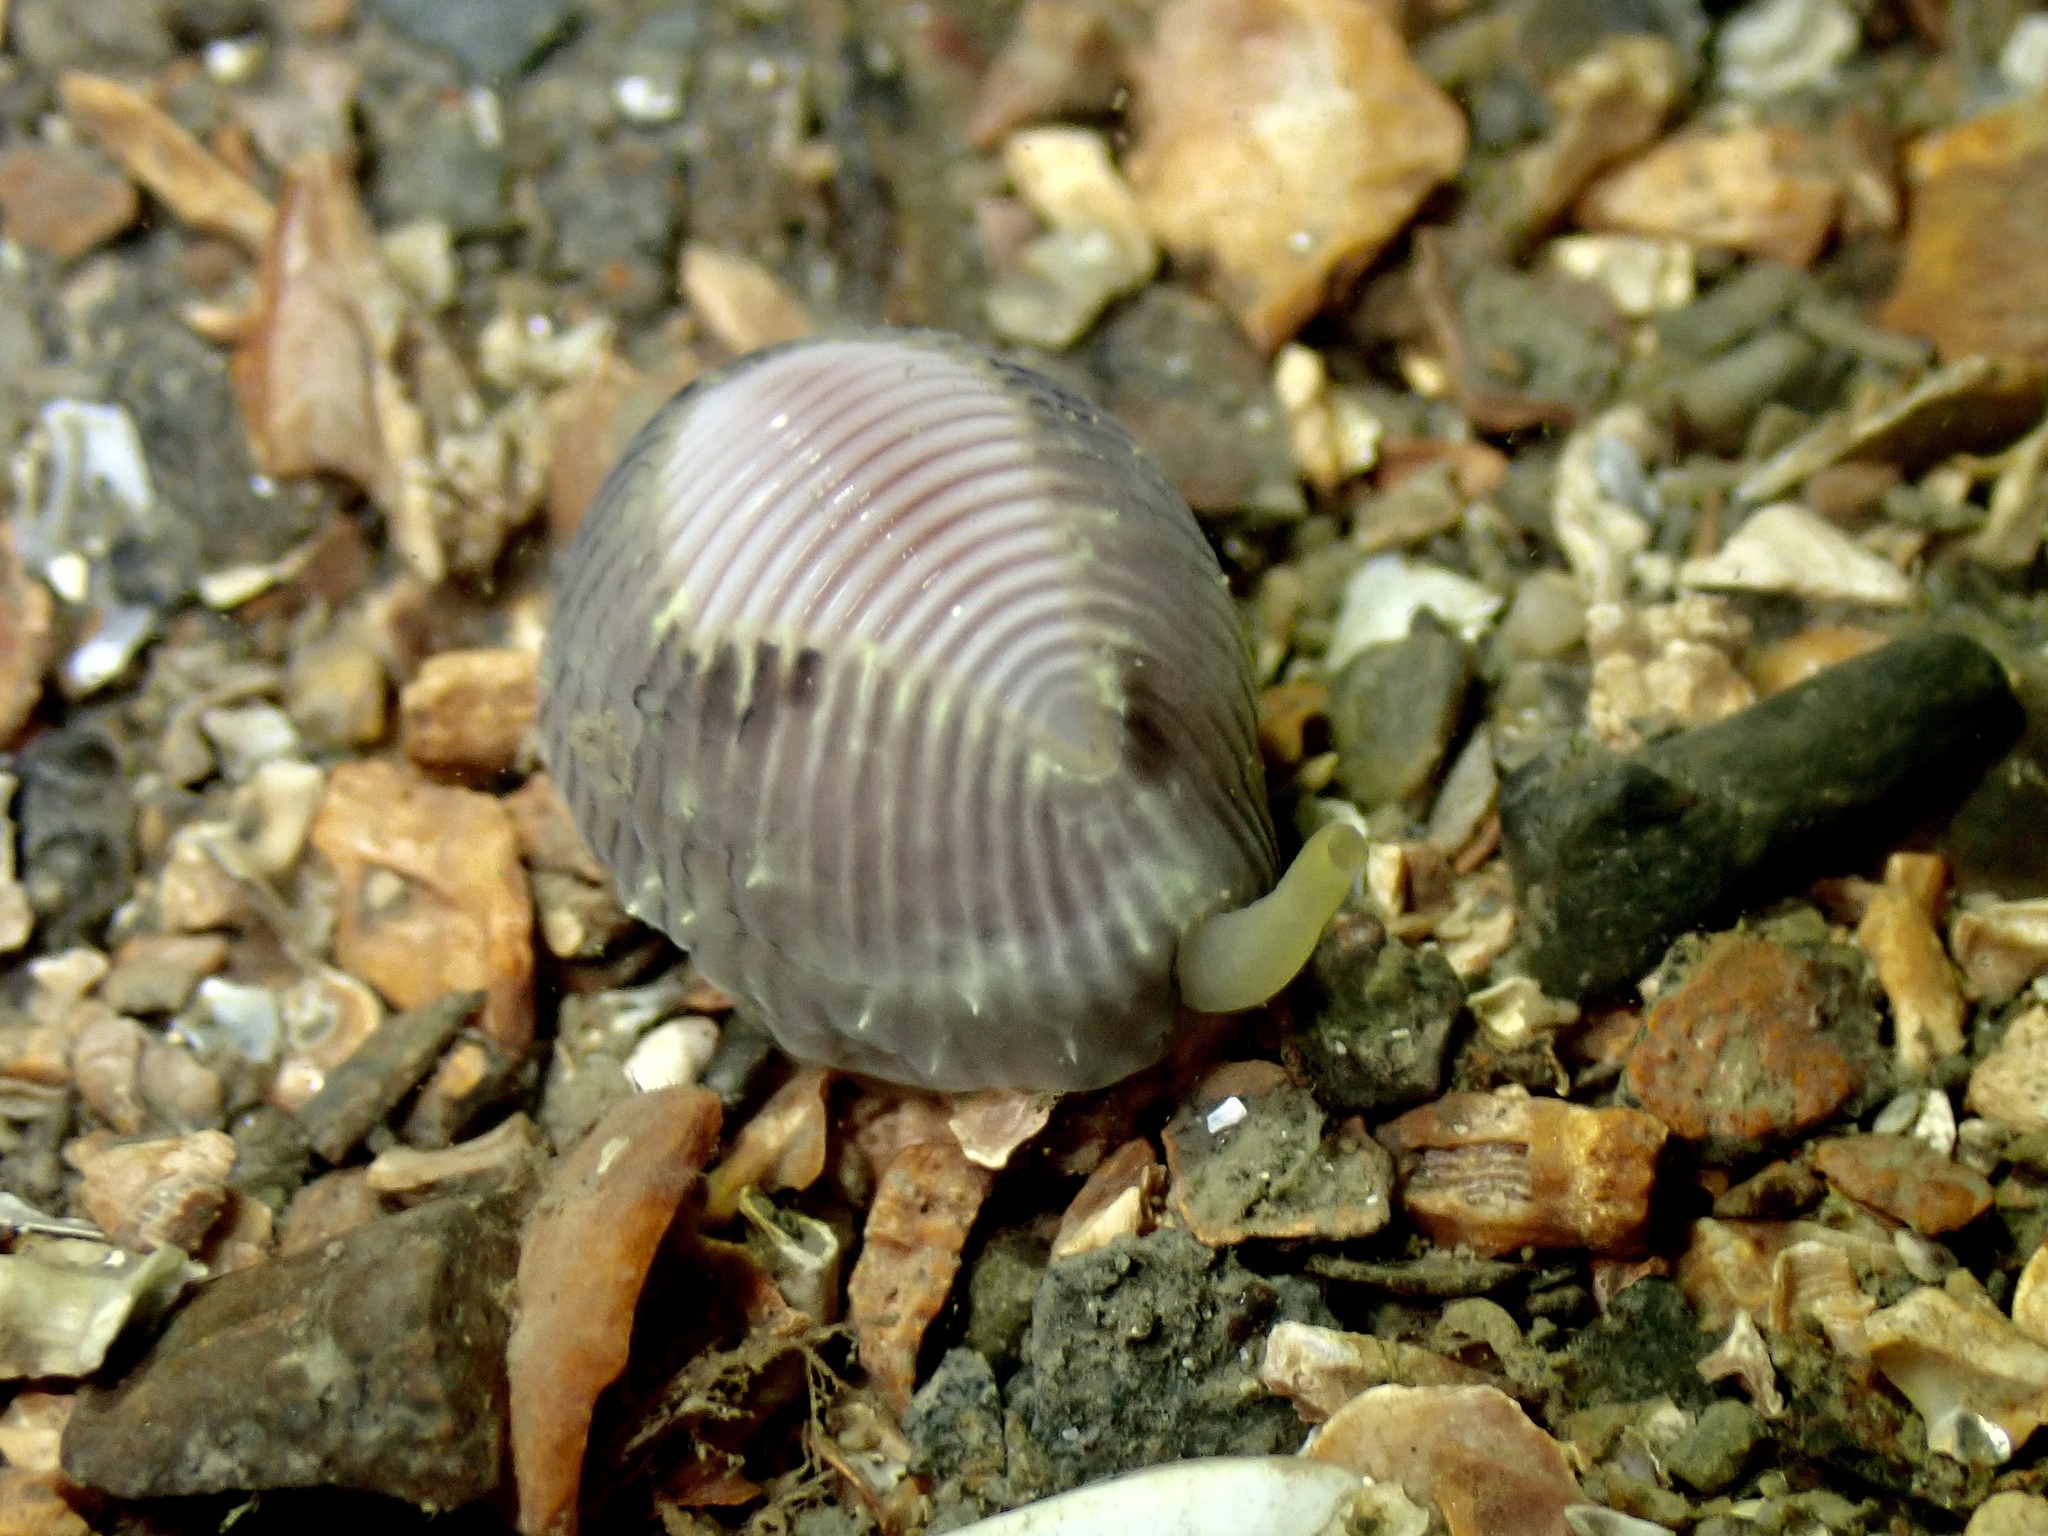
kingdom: Animalia
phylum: Mollusca
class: Gastropoda
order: Littorinimorpha
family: Triviidae
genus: Trivia
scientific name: Trivia arctica
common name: Arctic cowrie
